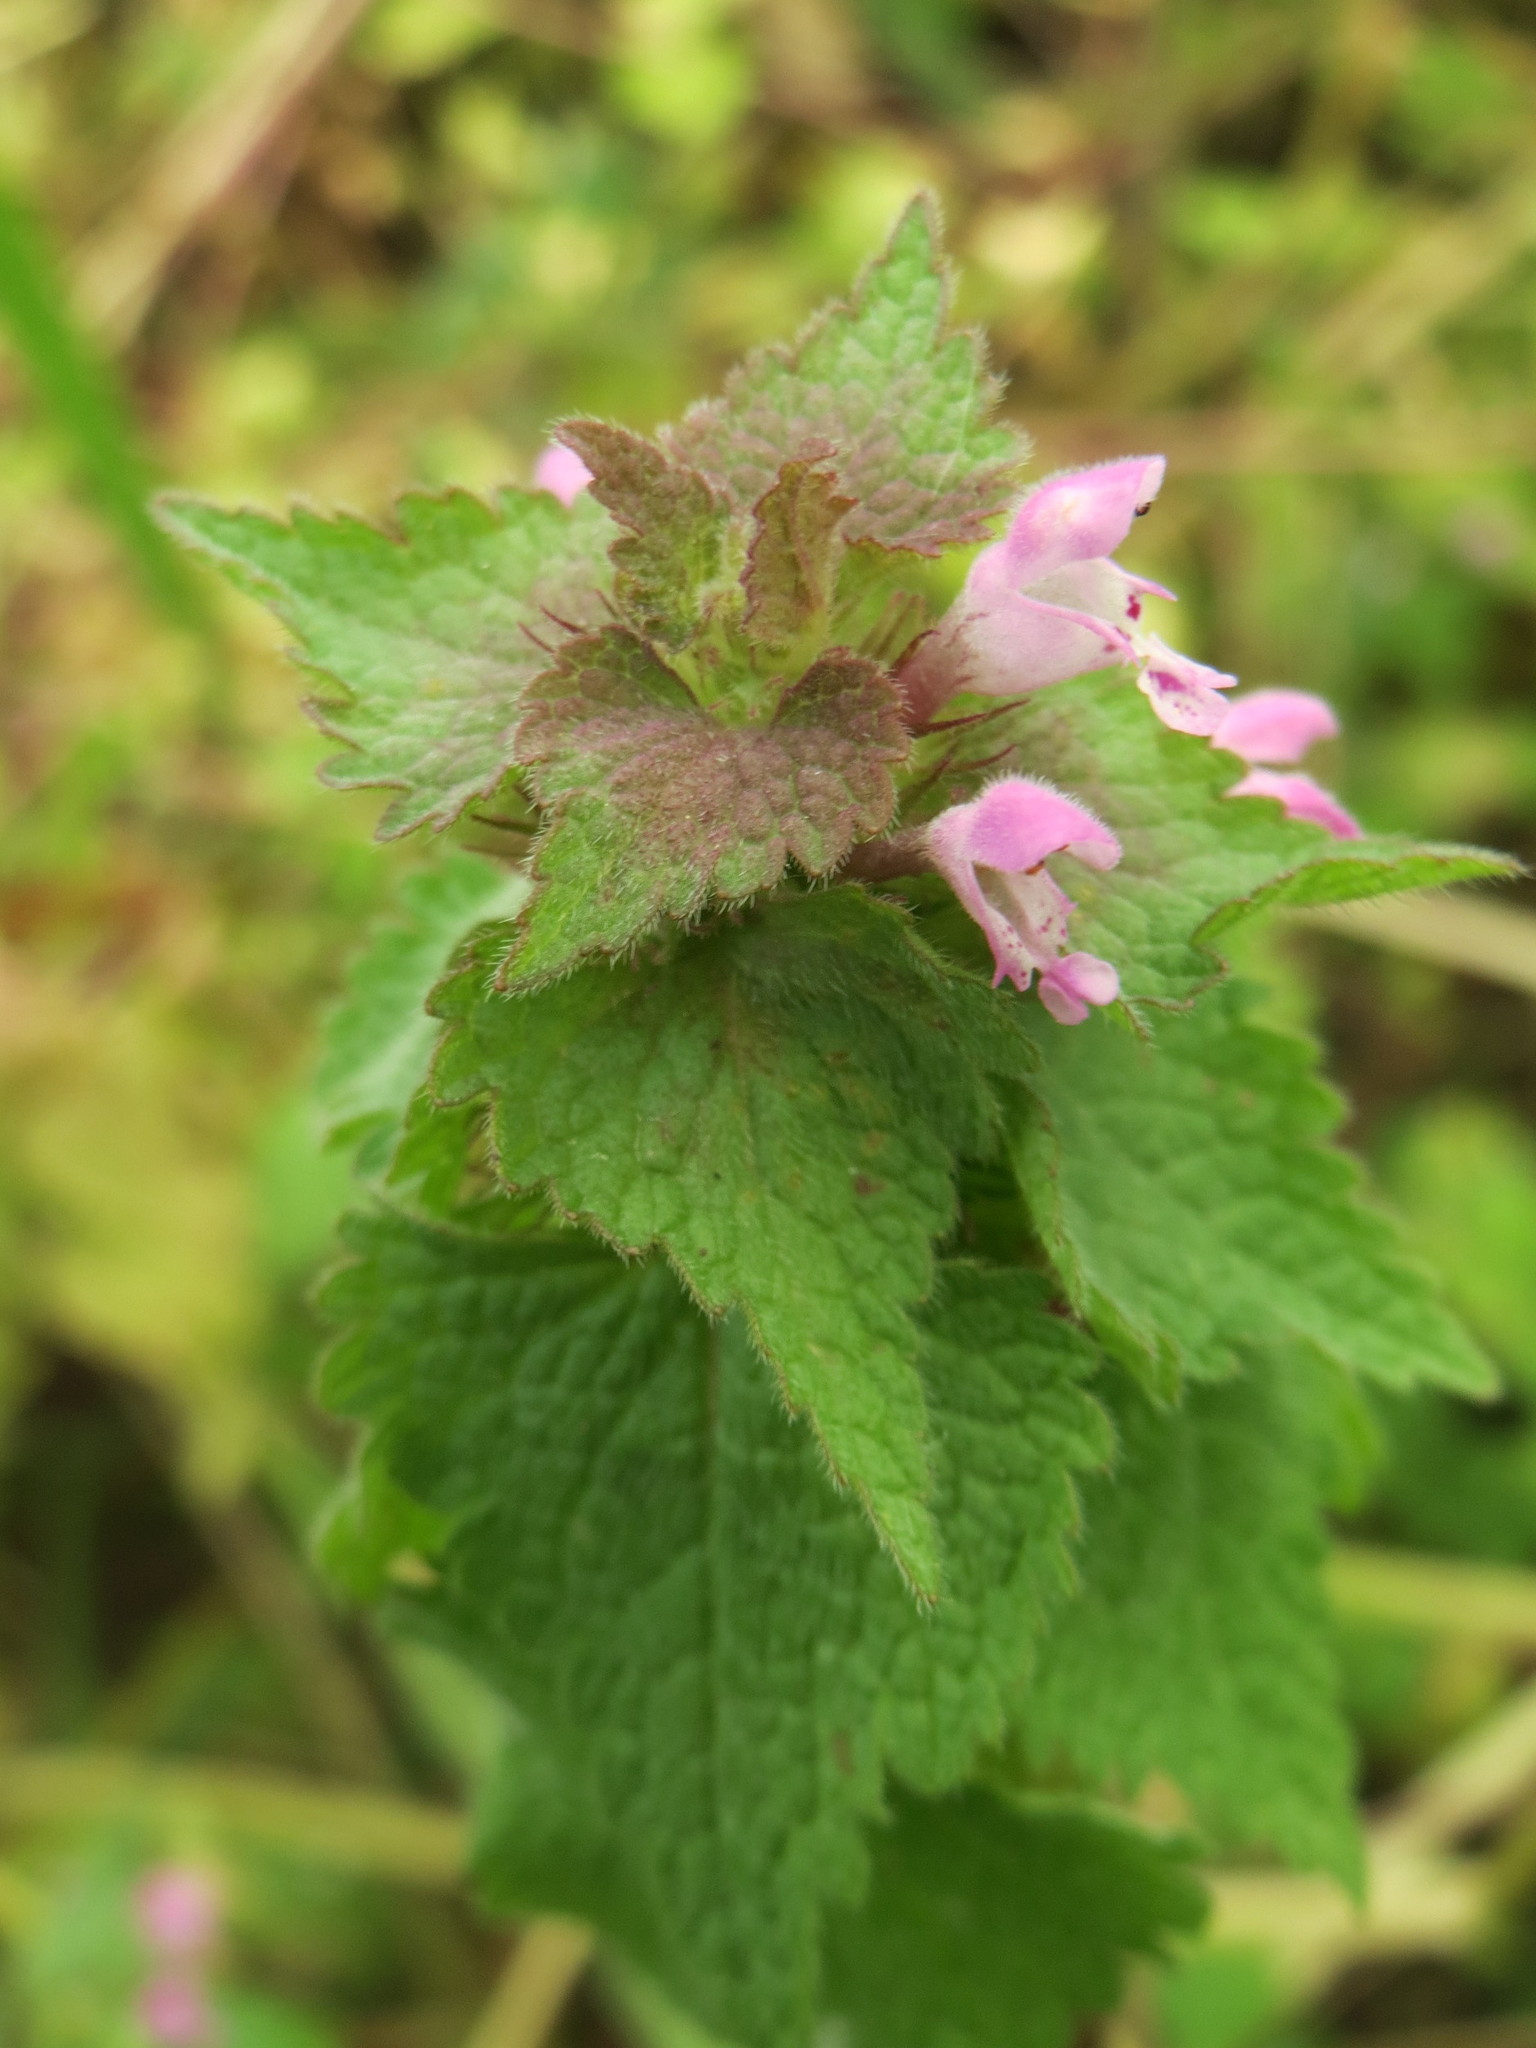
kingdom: Plantae
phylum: Tracheophyta
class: Magnoliopsida
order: Lamiales
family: Lamiaceae
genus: Lamium
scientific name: Lamium purpureum
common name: Red dead-nettle
